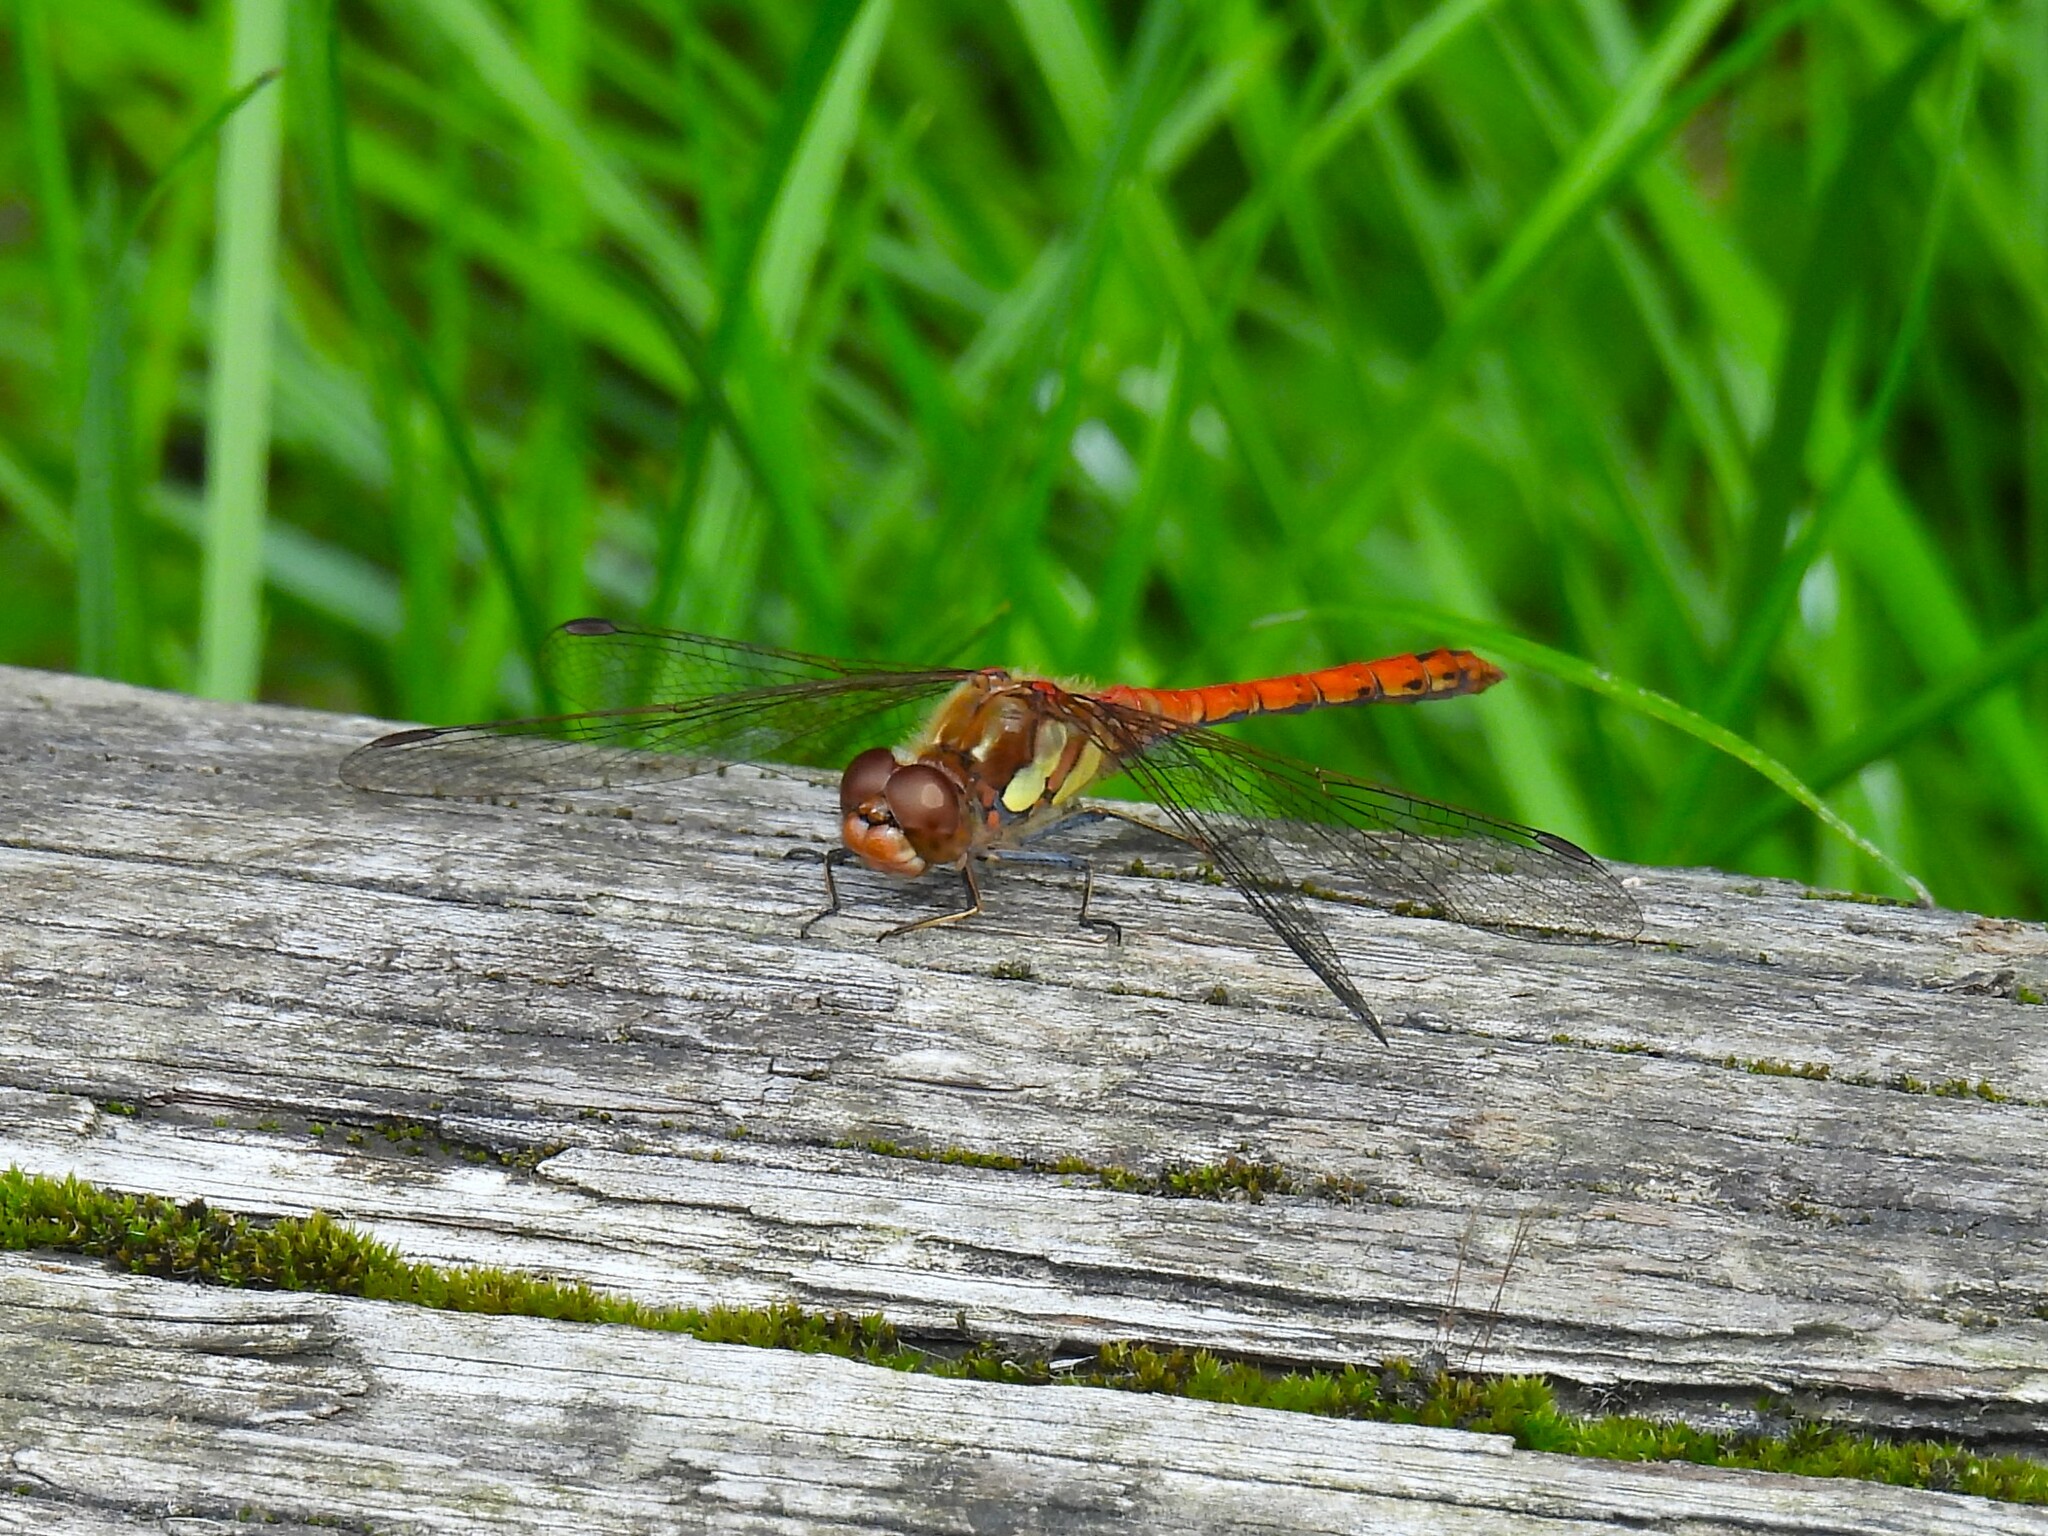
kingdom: Animalia
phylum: Arthropoda
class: Insecta
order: Odonata
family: Libellulidae
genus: Sympetrum
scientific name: Sympetrum striolatum
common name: Common darter
